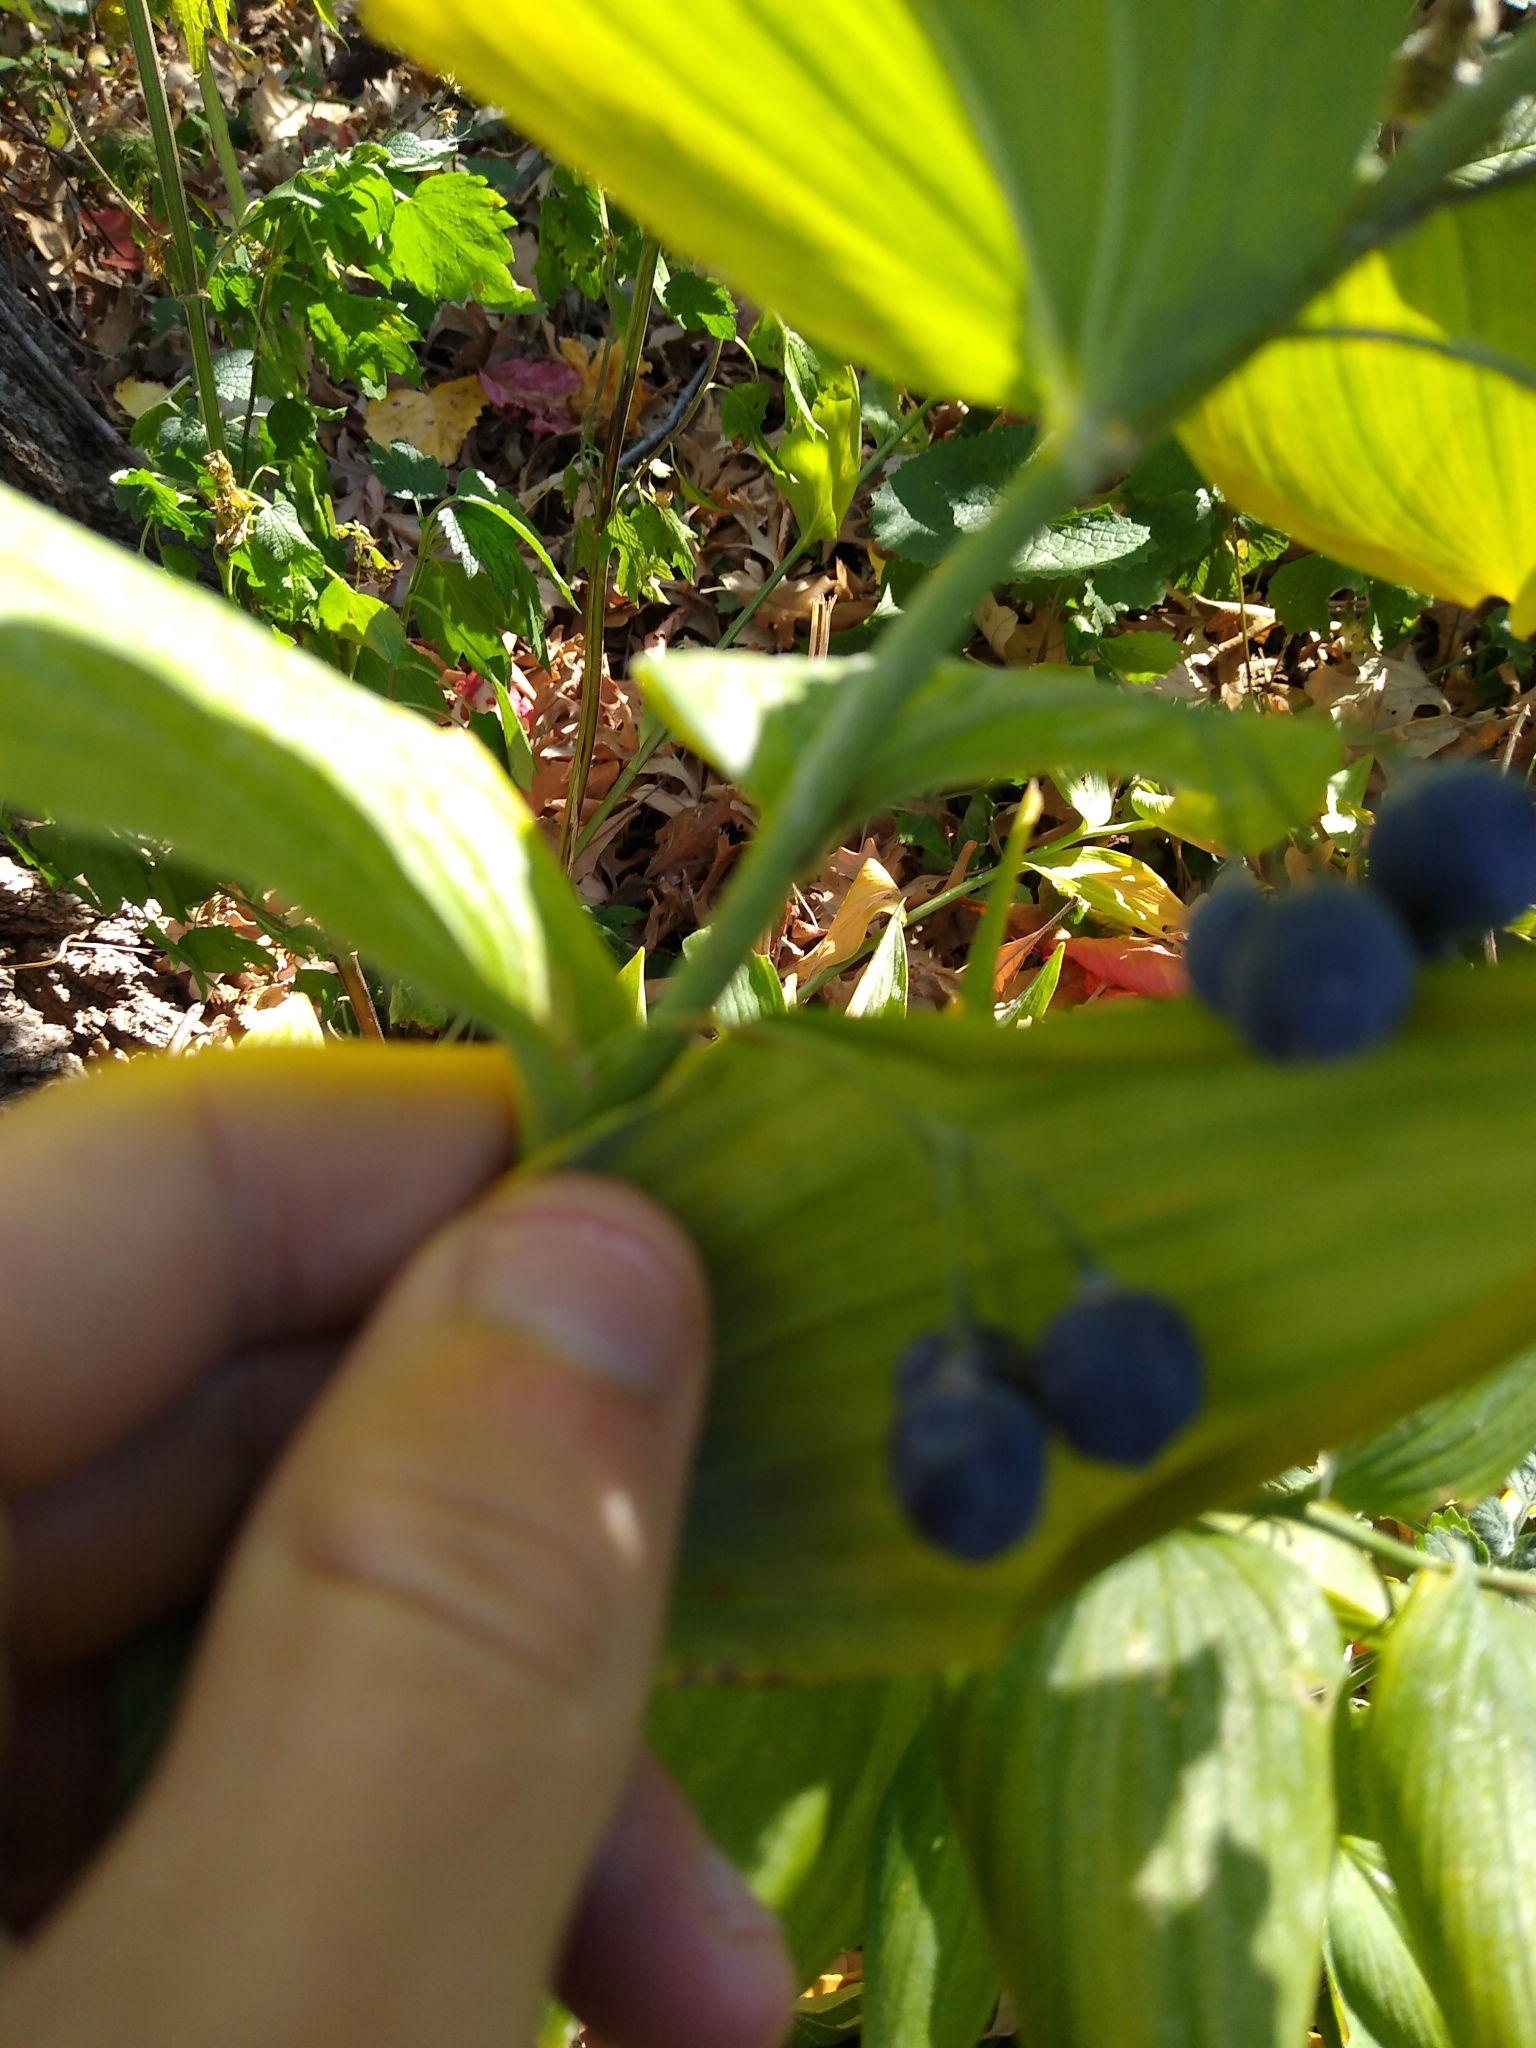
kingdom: Plantae
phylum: Tracheophyta
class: Liliopsida
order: Asparagales
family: Asparagaceae
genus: Polygonatum
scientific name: Polygonatum biflorum
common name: American solomon's-seal
